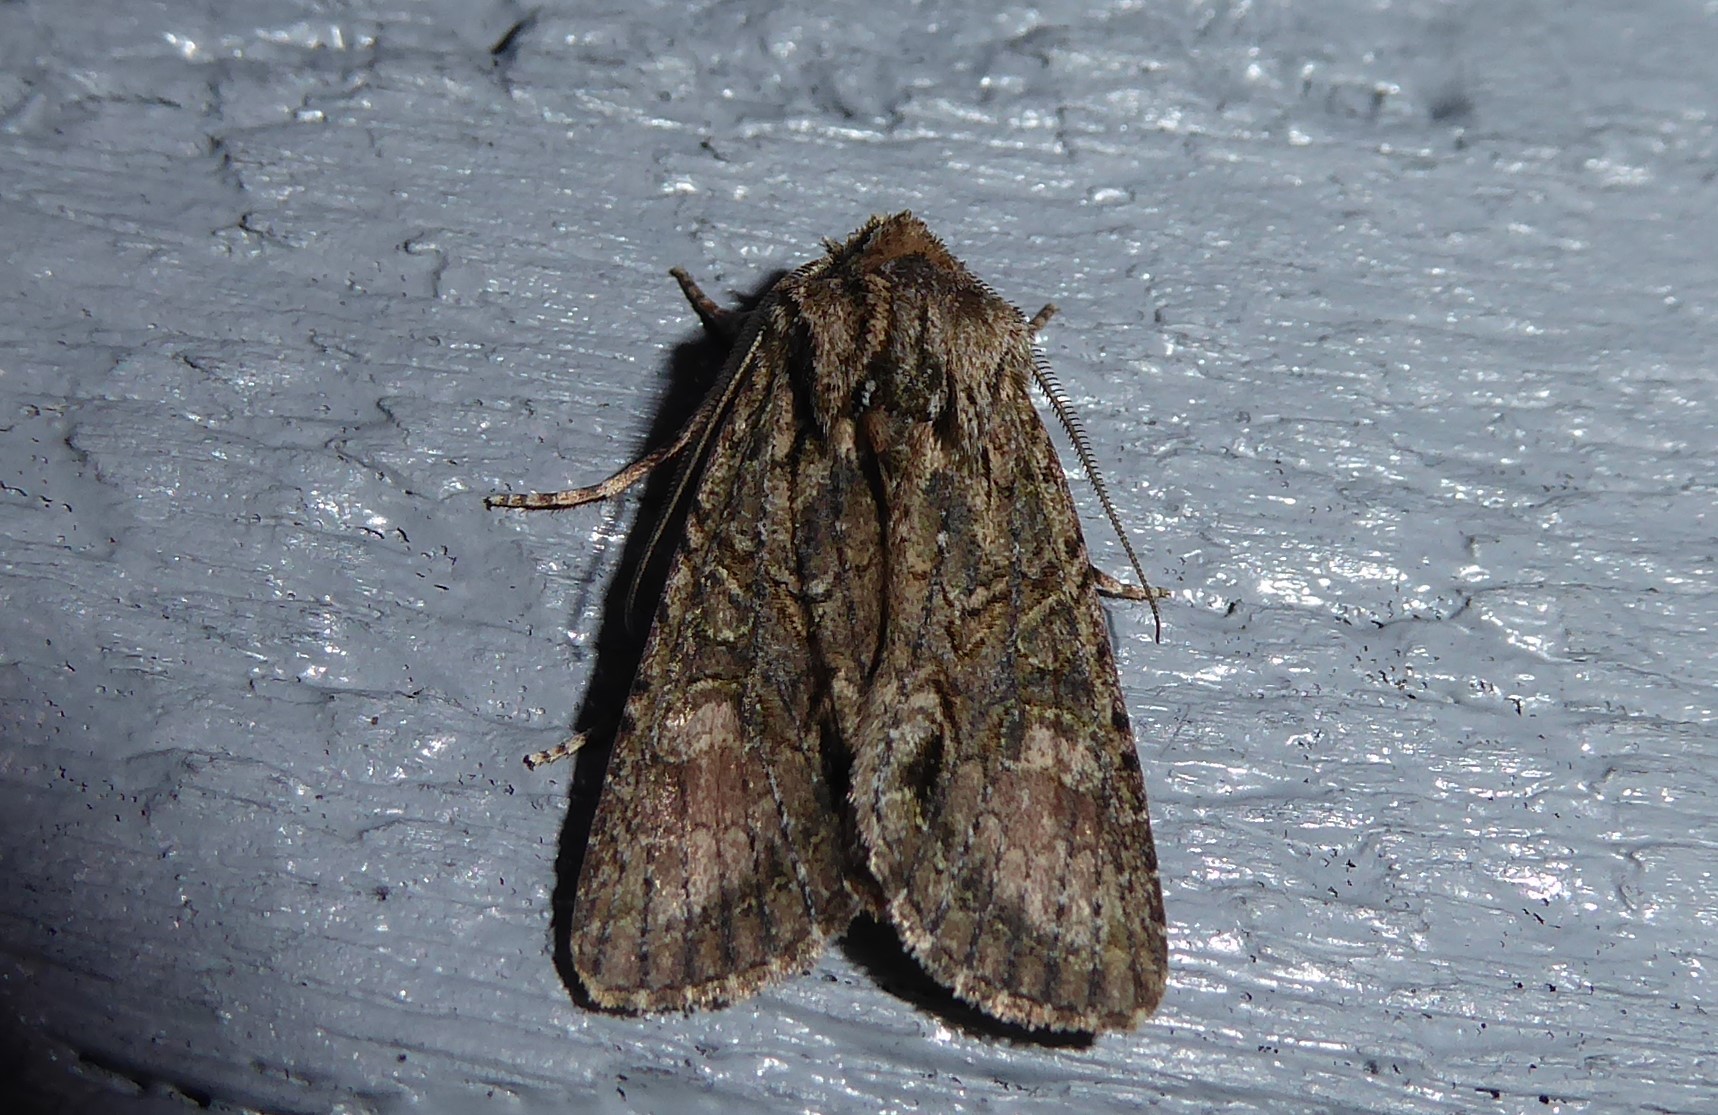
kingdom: Animalia
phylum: Arthropoda
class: Insecta
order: Lepidoptera
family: Noctuidae
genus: Ichneutica
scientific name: Ichneutica mutans
